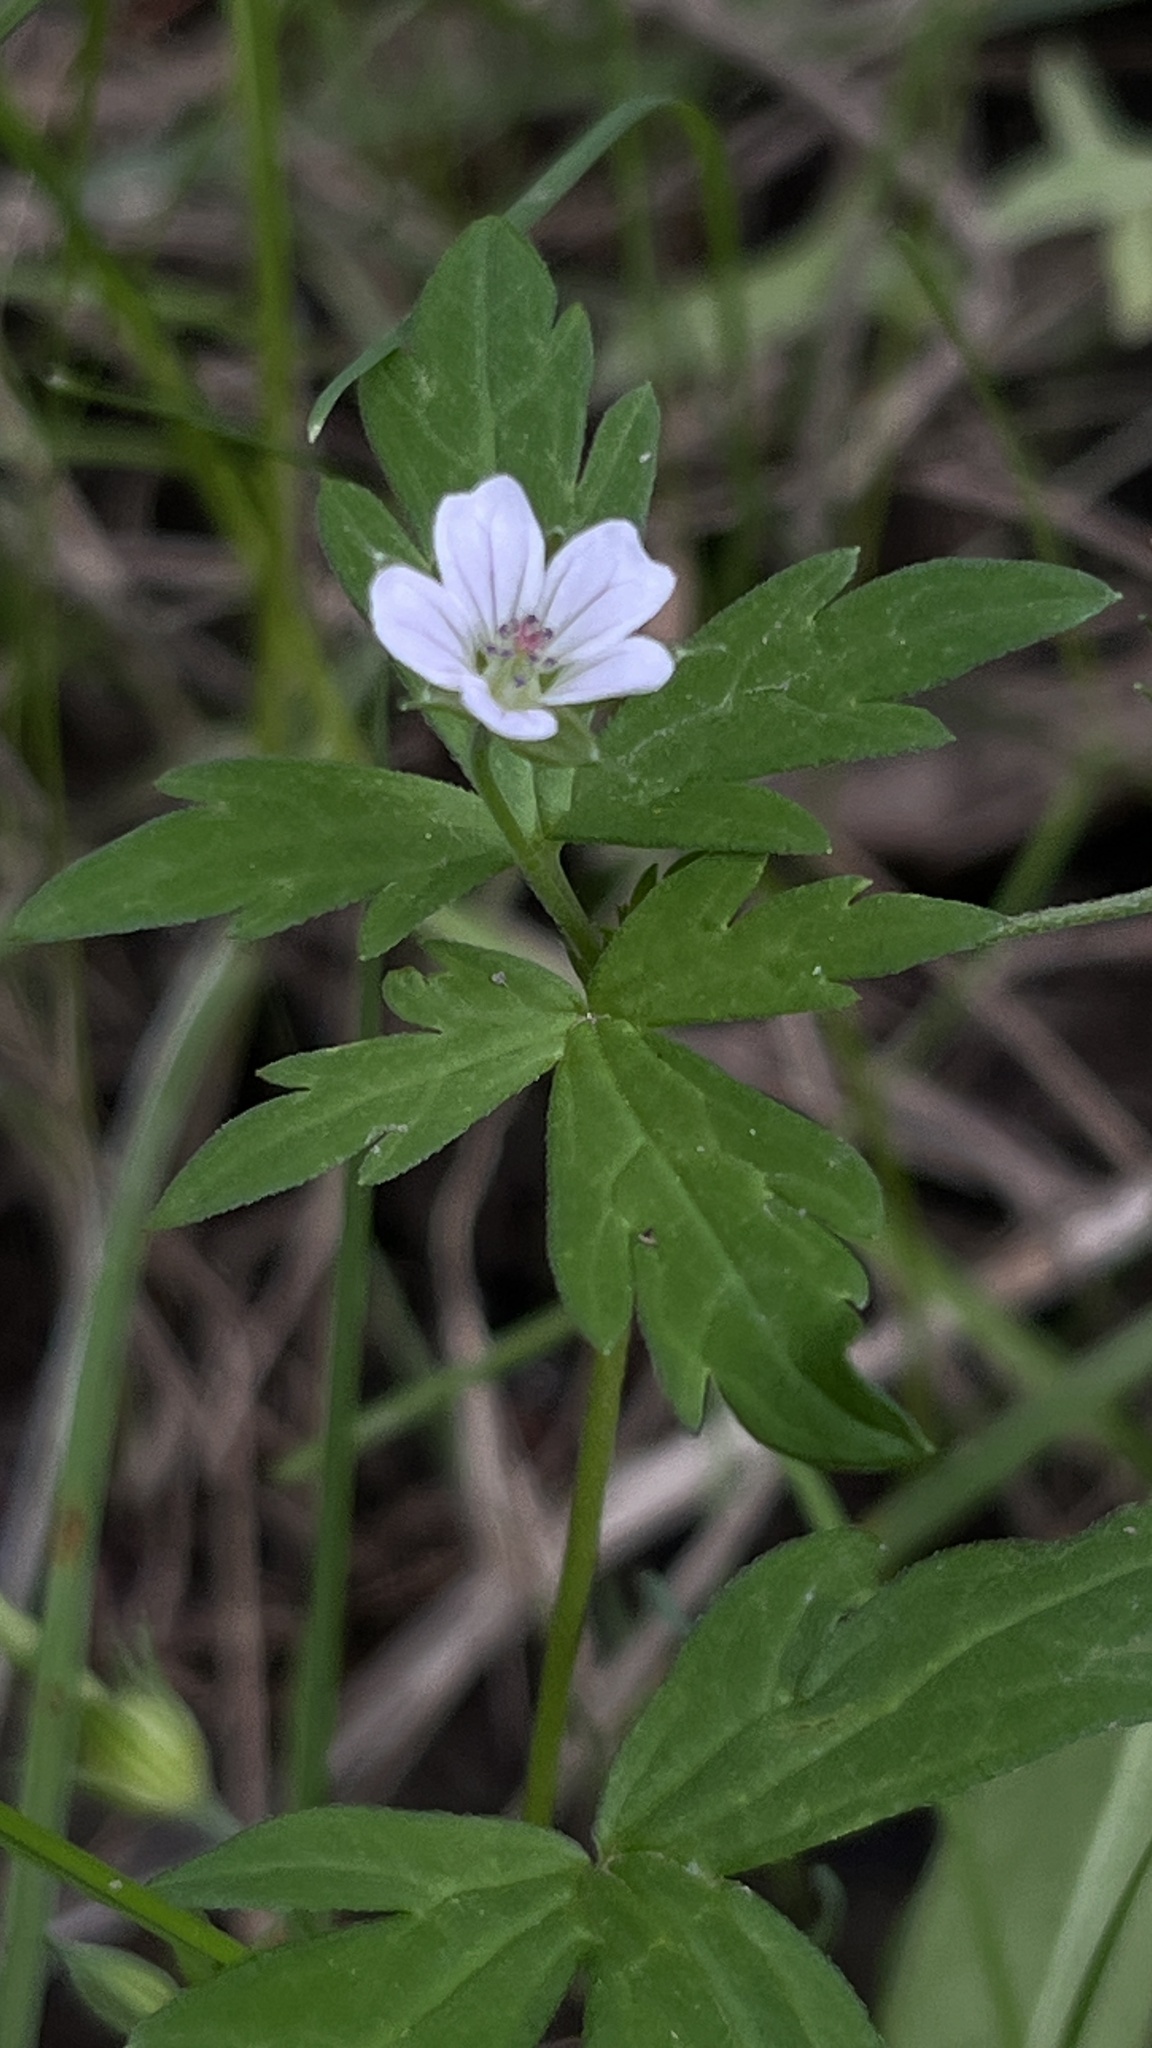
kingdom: Plantae
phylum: Tracheophyta
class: Magnoliopsida
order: Geraniales
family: Geraniaceae
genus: Geranium
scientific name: Geranium sibiricum
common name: Siberian crane's-bill
